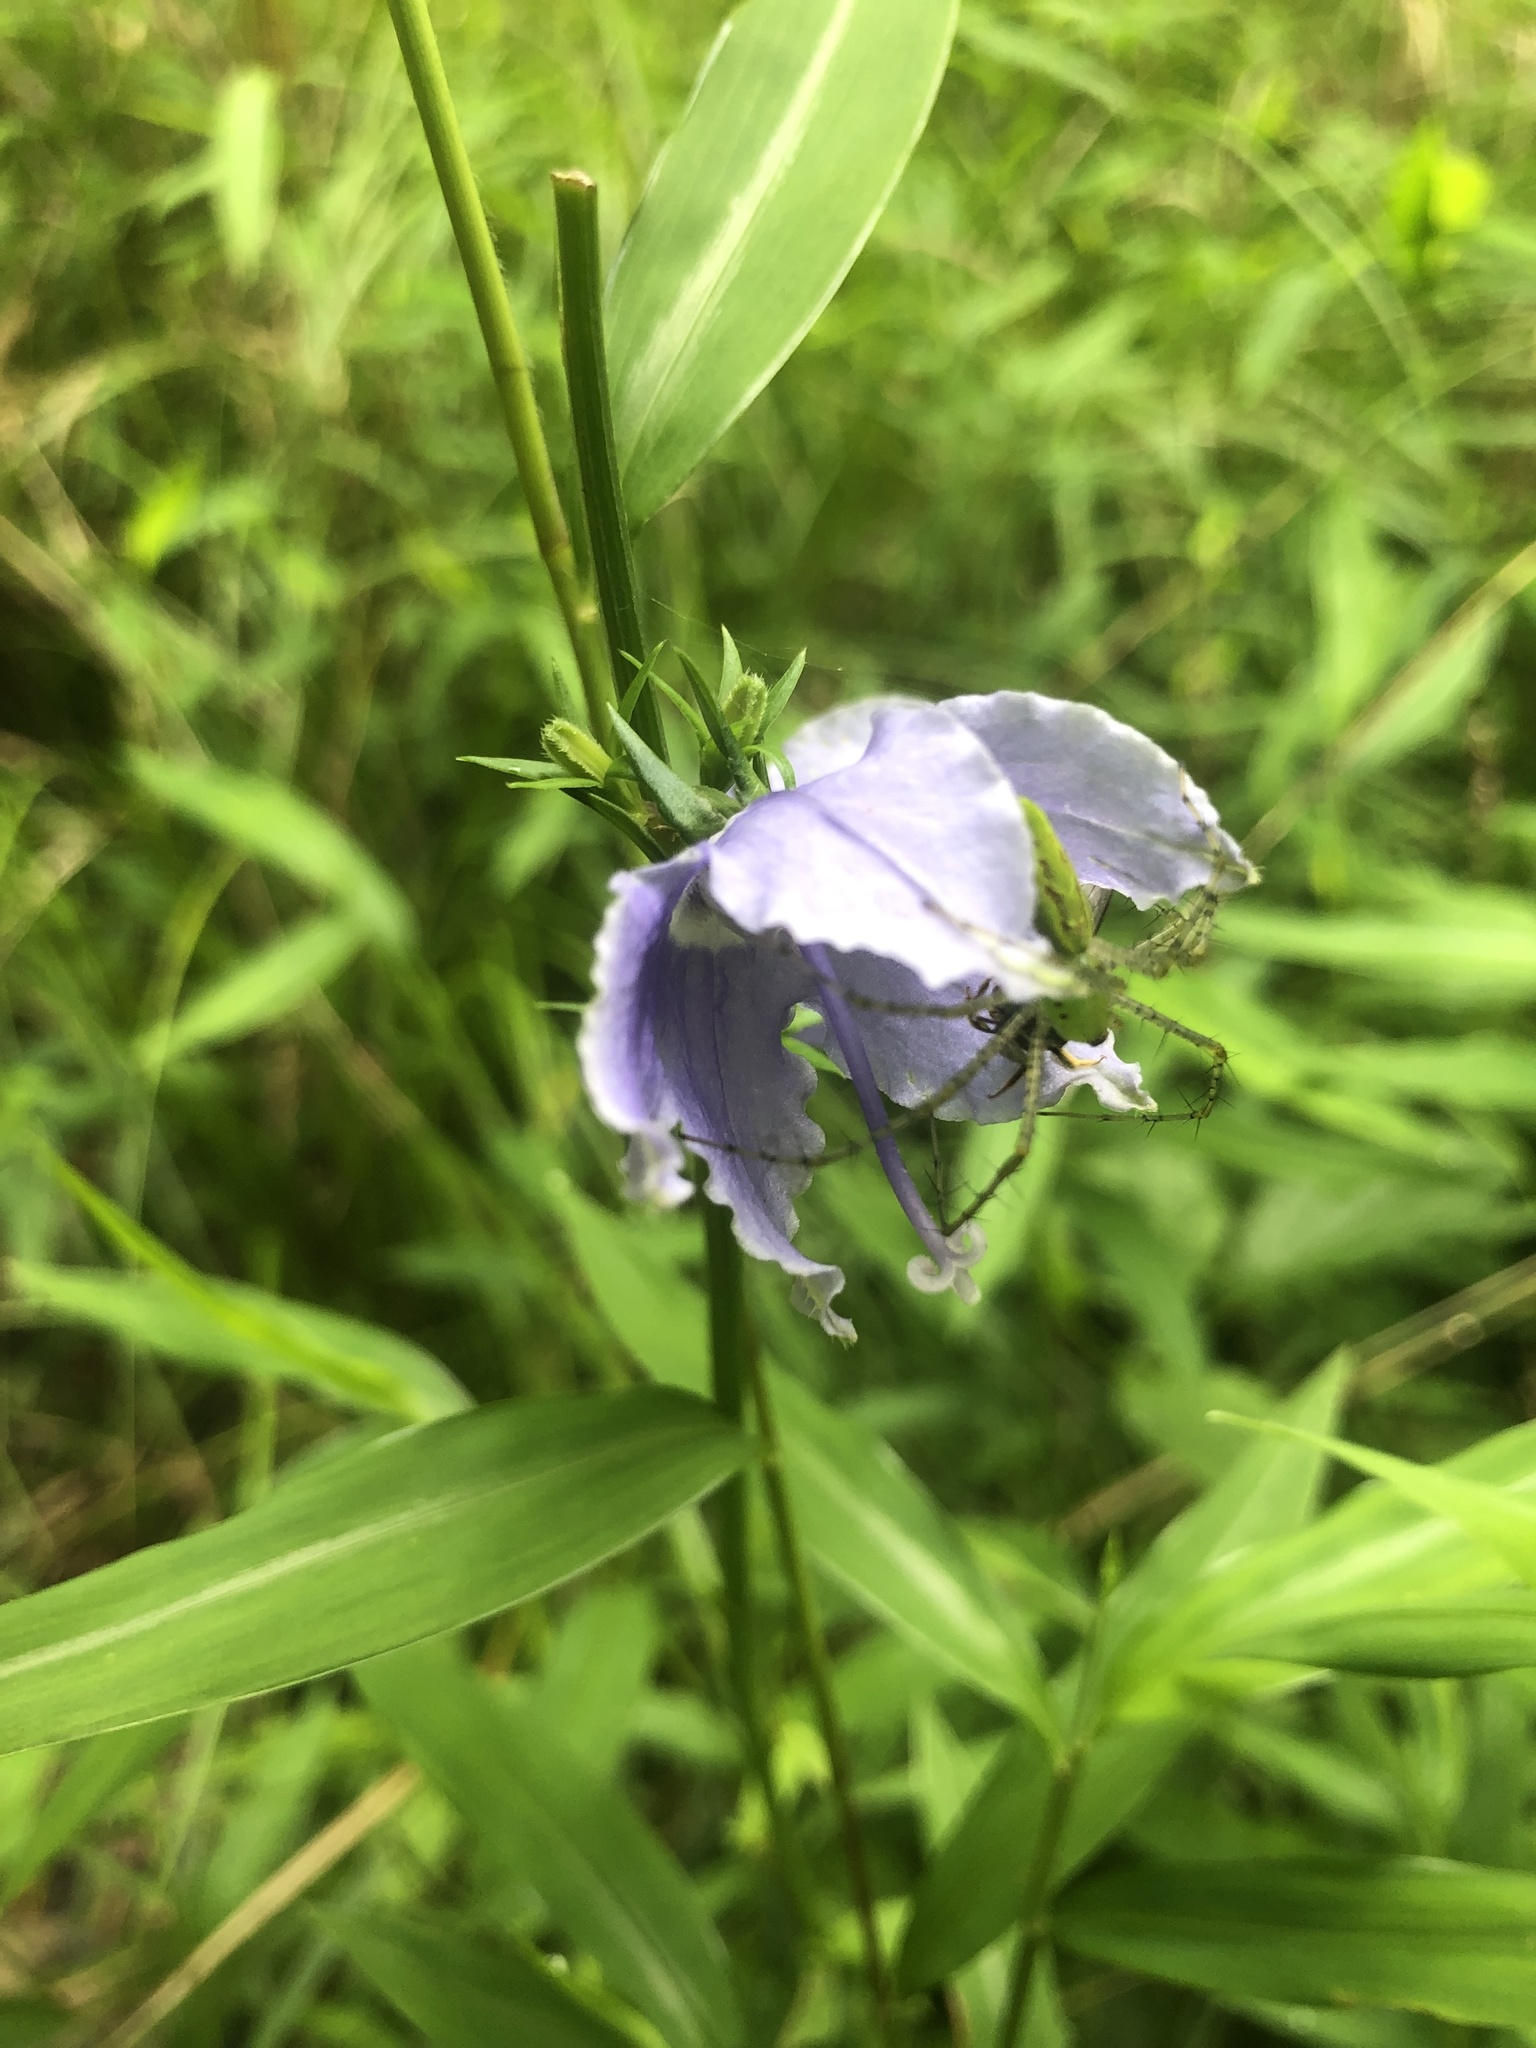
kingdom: Plantae
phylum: Tracheophyta
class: Magnoliopsida
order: Asterales
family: Campanulaceae
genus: Campanulastrum
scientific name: Campanulastrum americanum
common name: American bellflower
